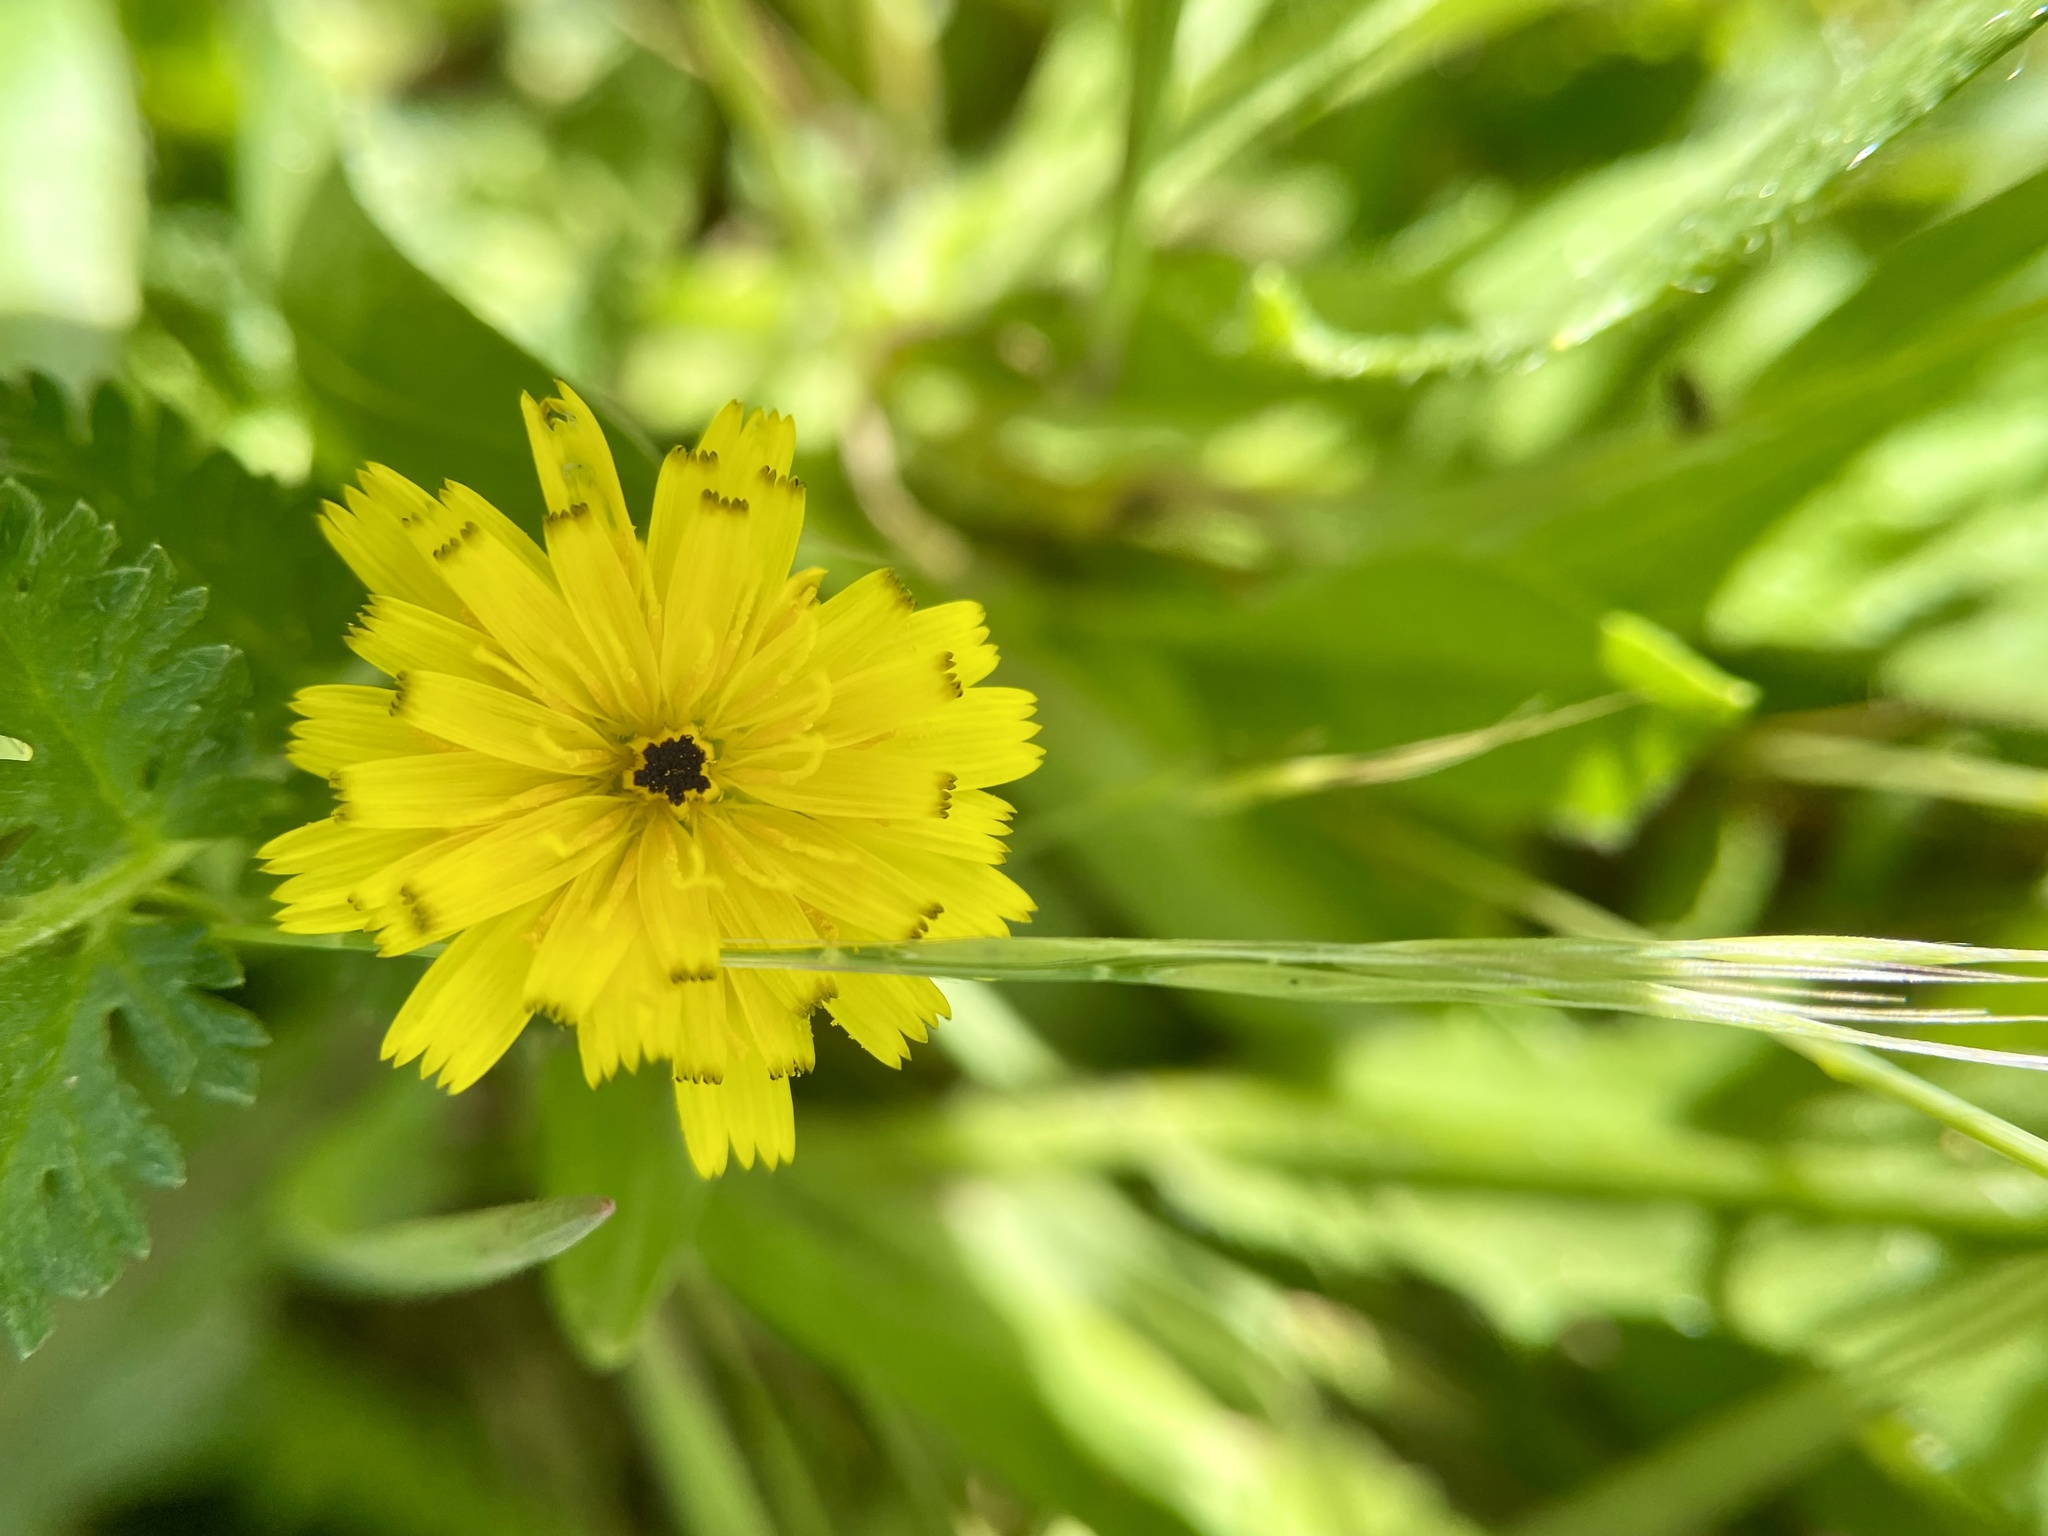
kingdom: Plantae
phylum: Tracheophyta
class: Magnoliopsida
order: Asterales
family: Asteraceae
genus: Hedypnois
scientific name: Hedypnois rhagadioloides
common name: Cretan weed
